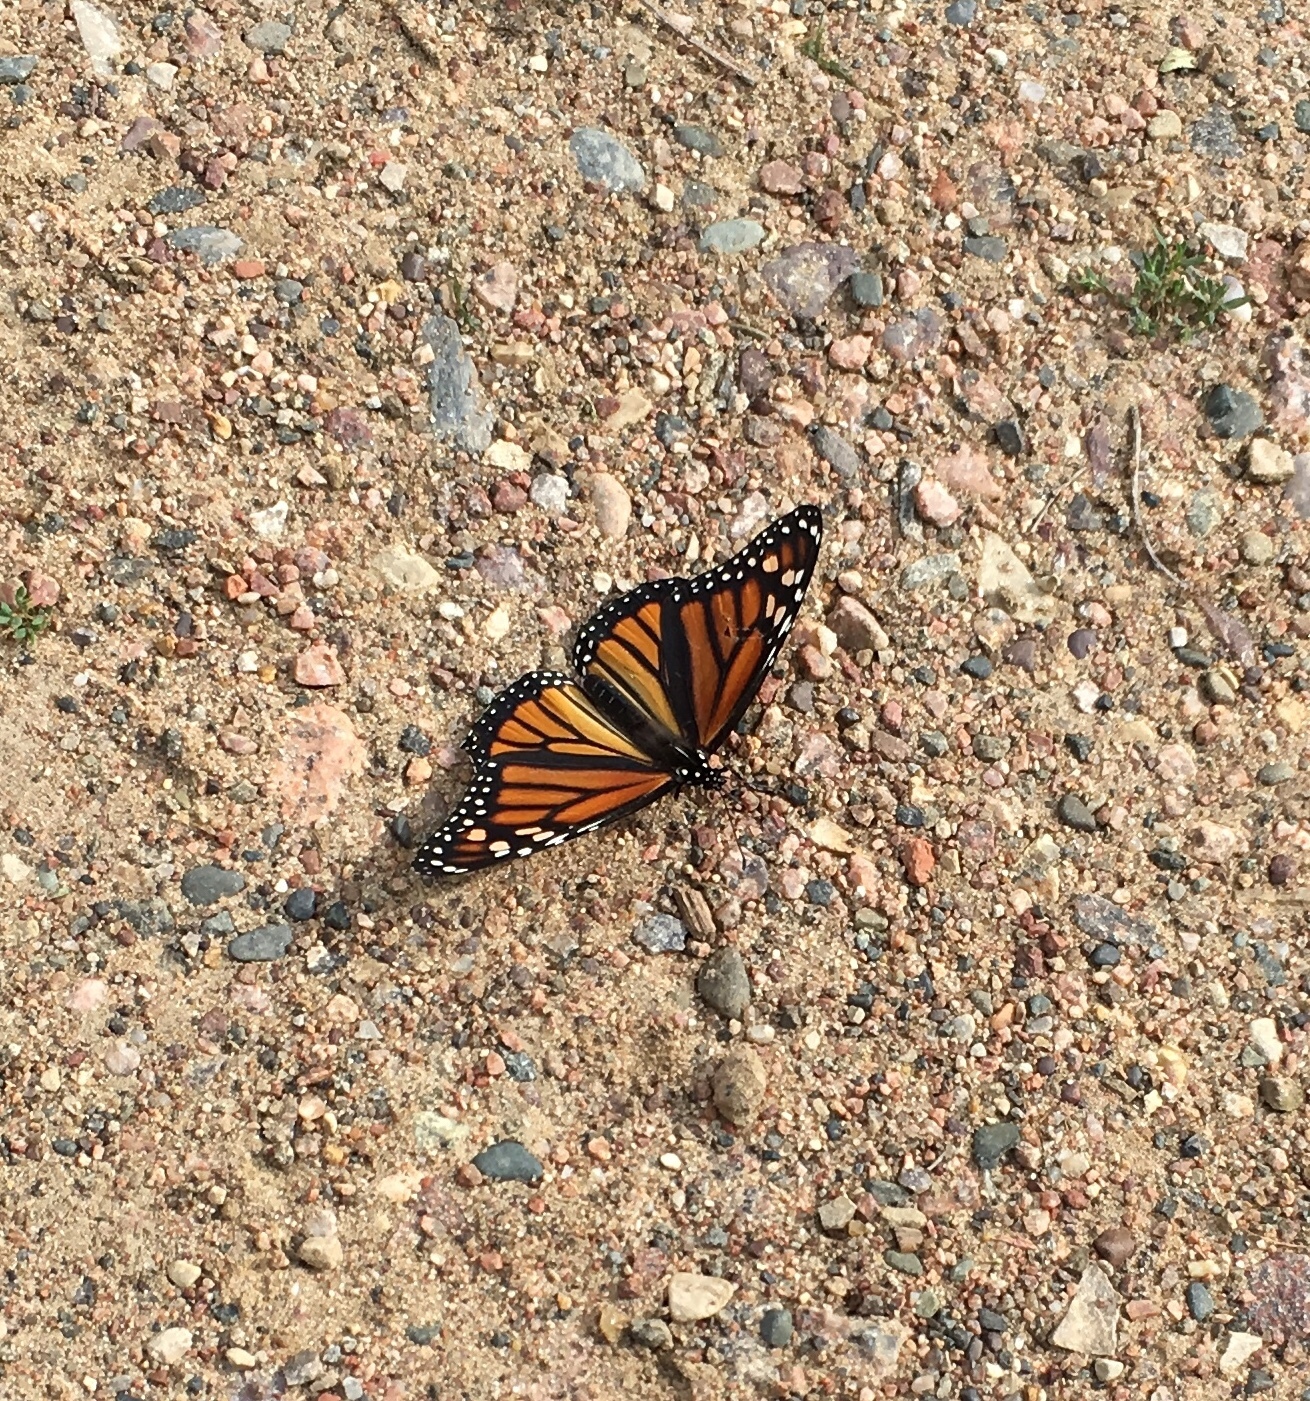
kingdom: Animalia
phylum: Arthropoda
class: Insecta
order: Lepidoptera
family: Nymphalidae
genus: Danaus
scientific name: Danaus plexippus
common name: Monarch
